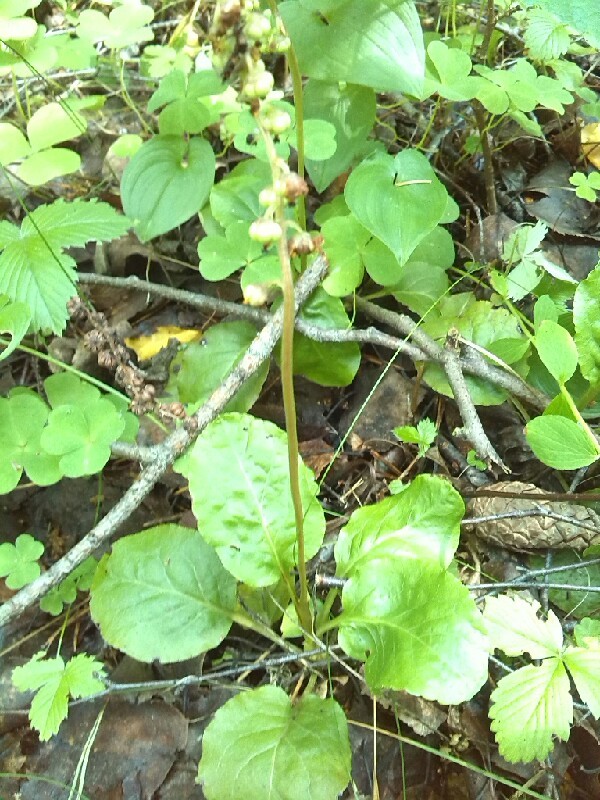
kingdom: Plantae
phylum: Tracheophyta
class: Magnoliopsida
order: Ericales
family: Ericaceae
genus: Pyrola
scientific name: Pyrola minor
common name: Common wintergreen
